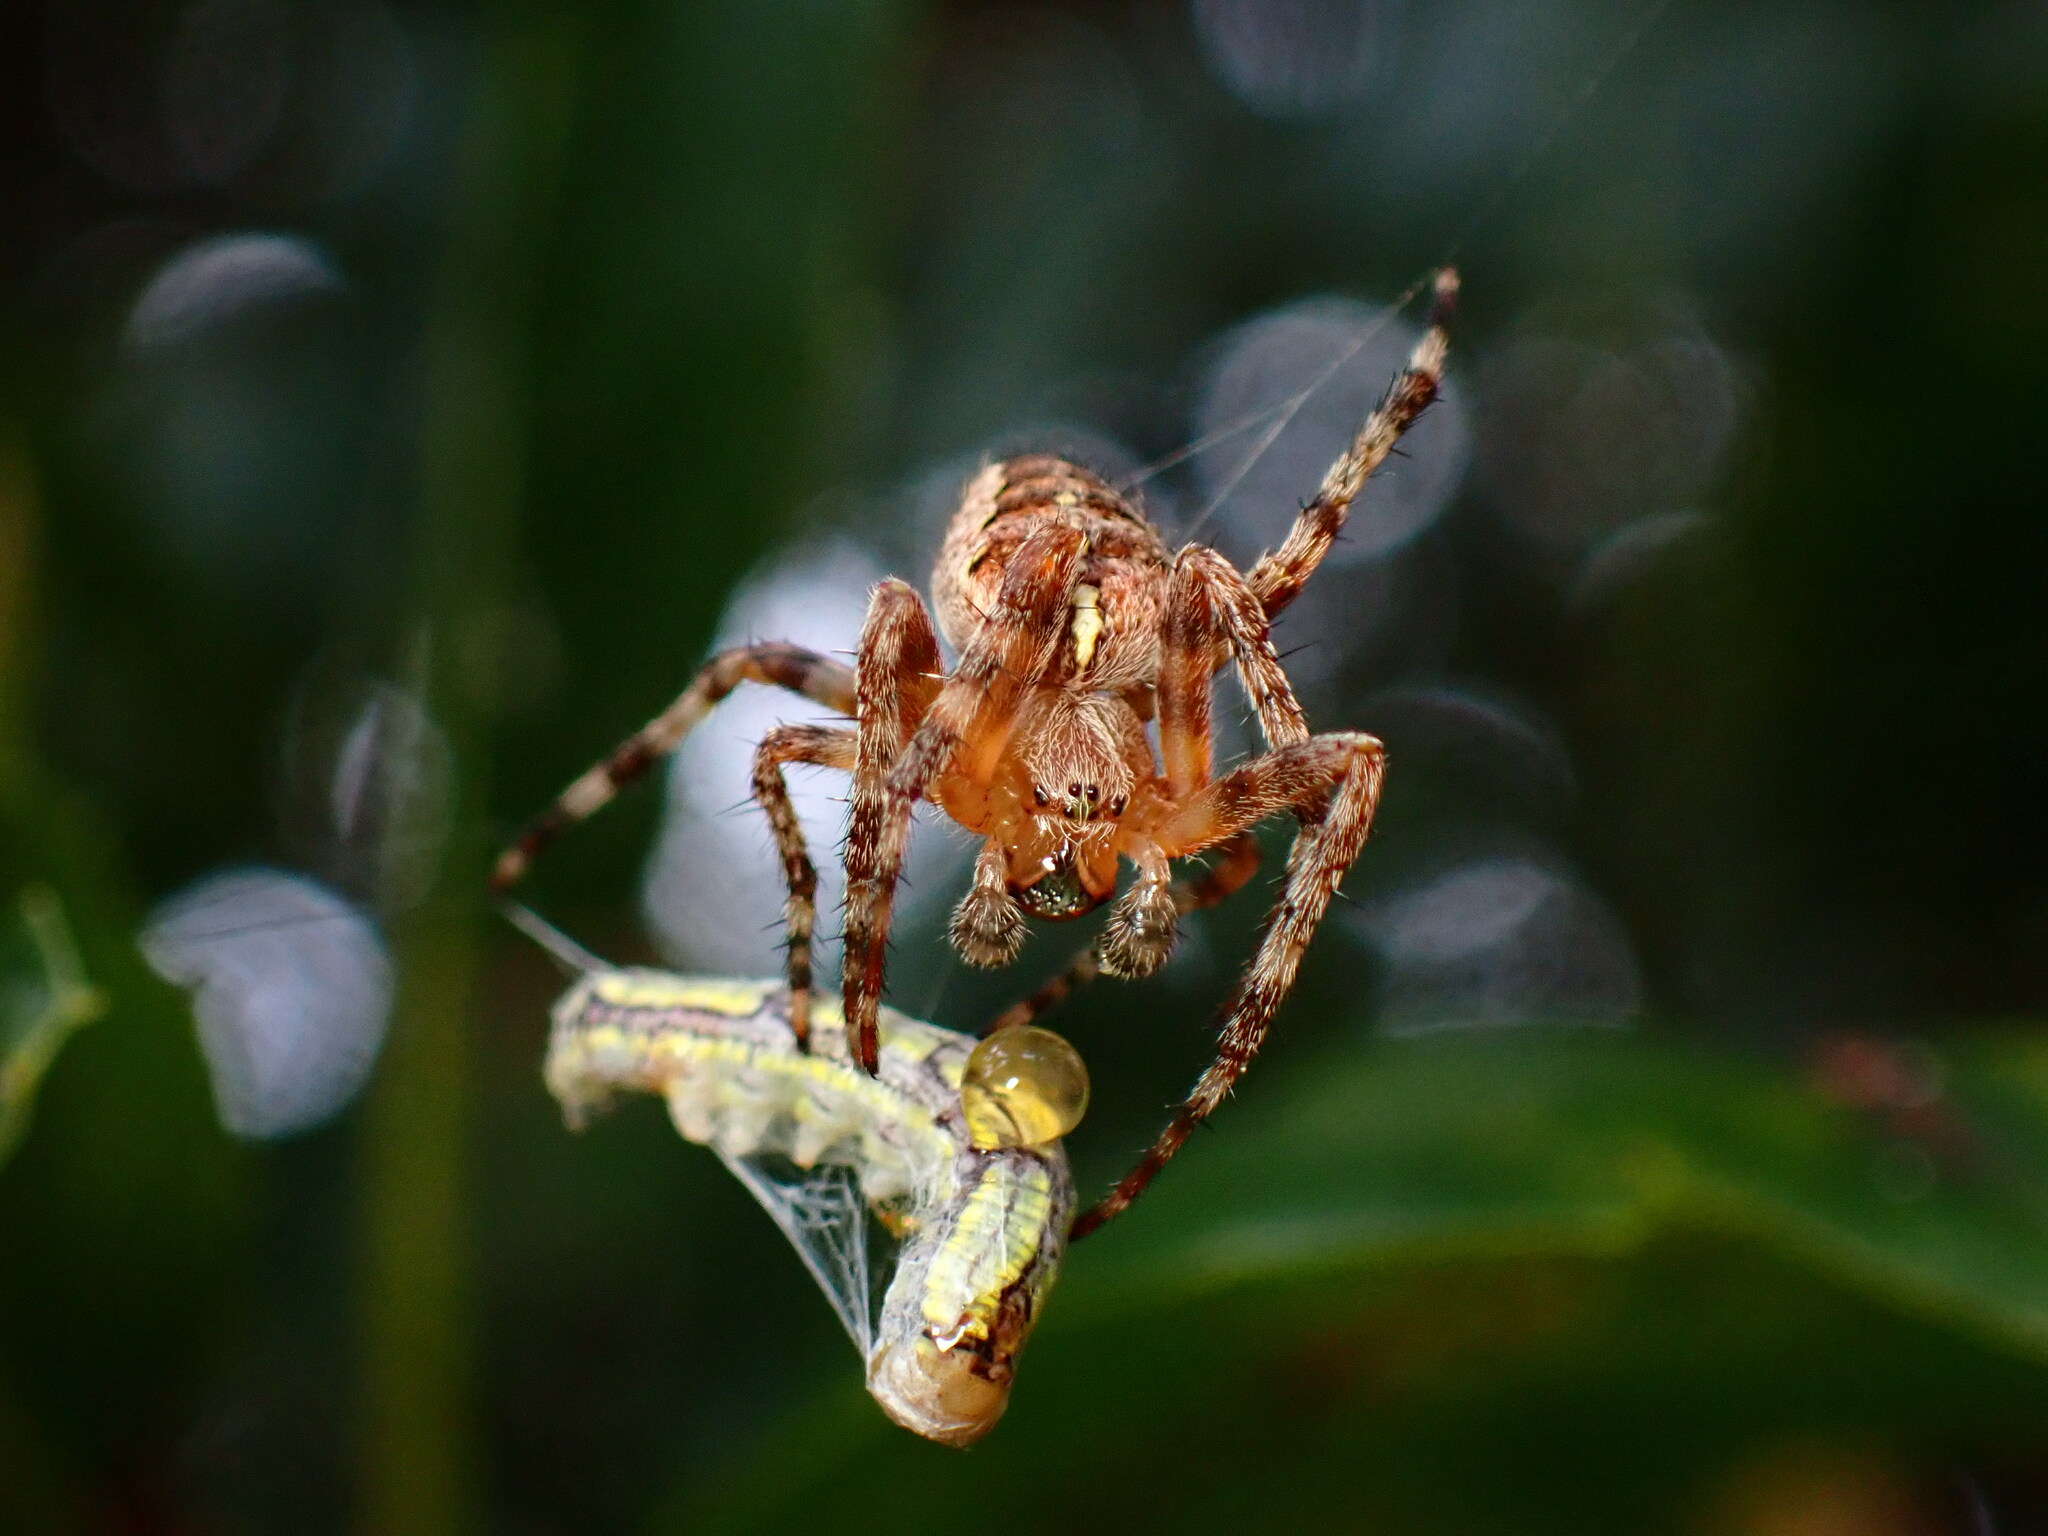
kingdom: Animalia
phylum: Arthropoda
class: Arachnida
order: Araneae
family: Araneidae
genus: Araneus
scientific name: Araneus diadematus
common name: Cross orbweaver
